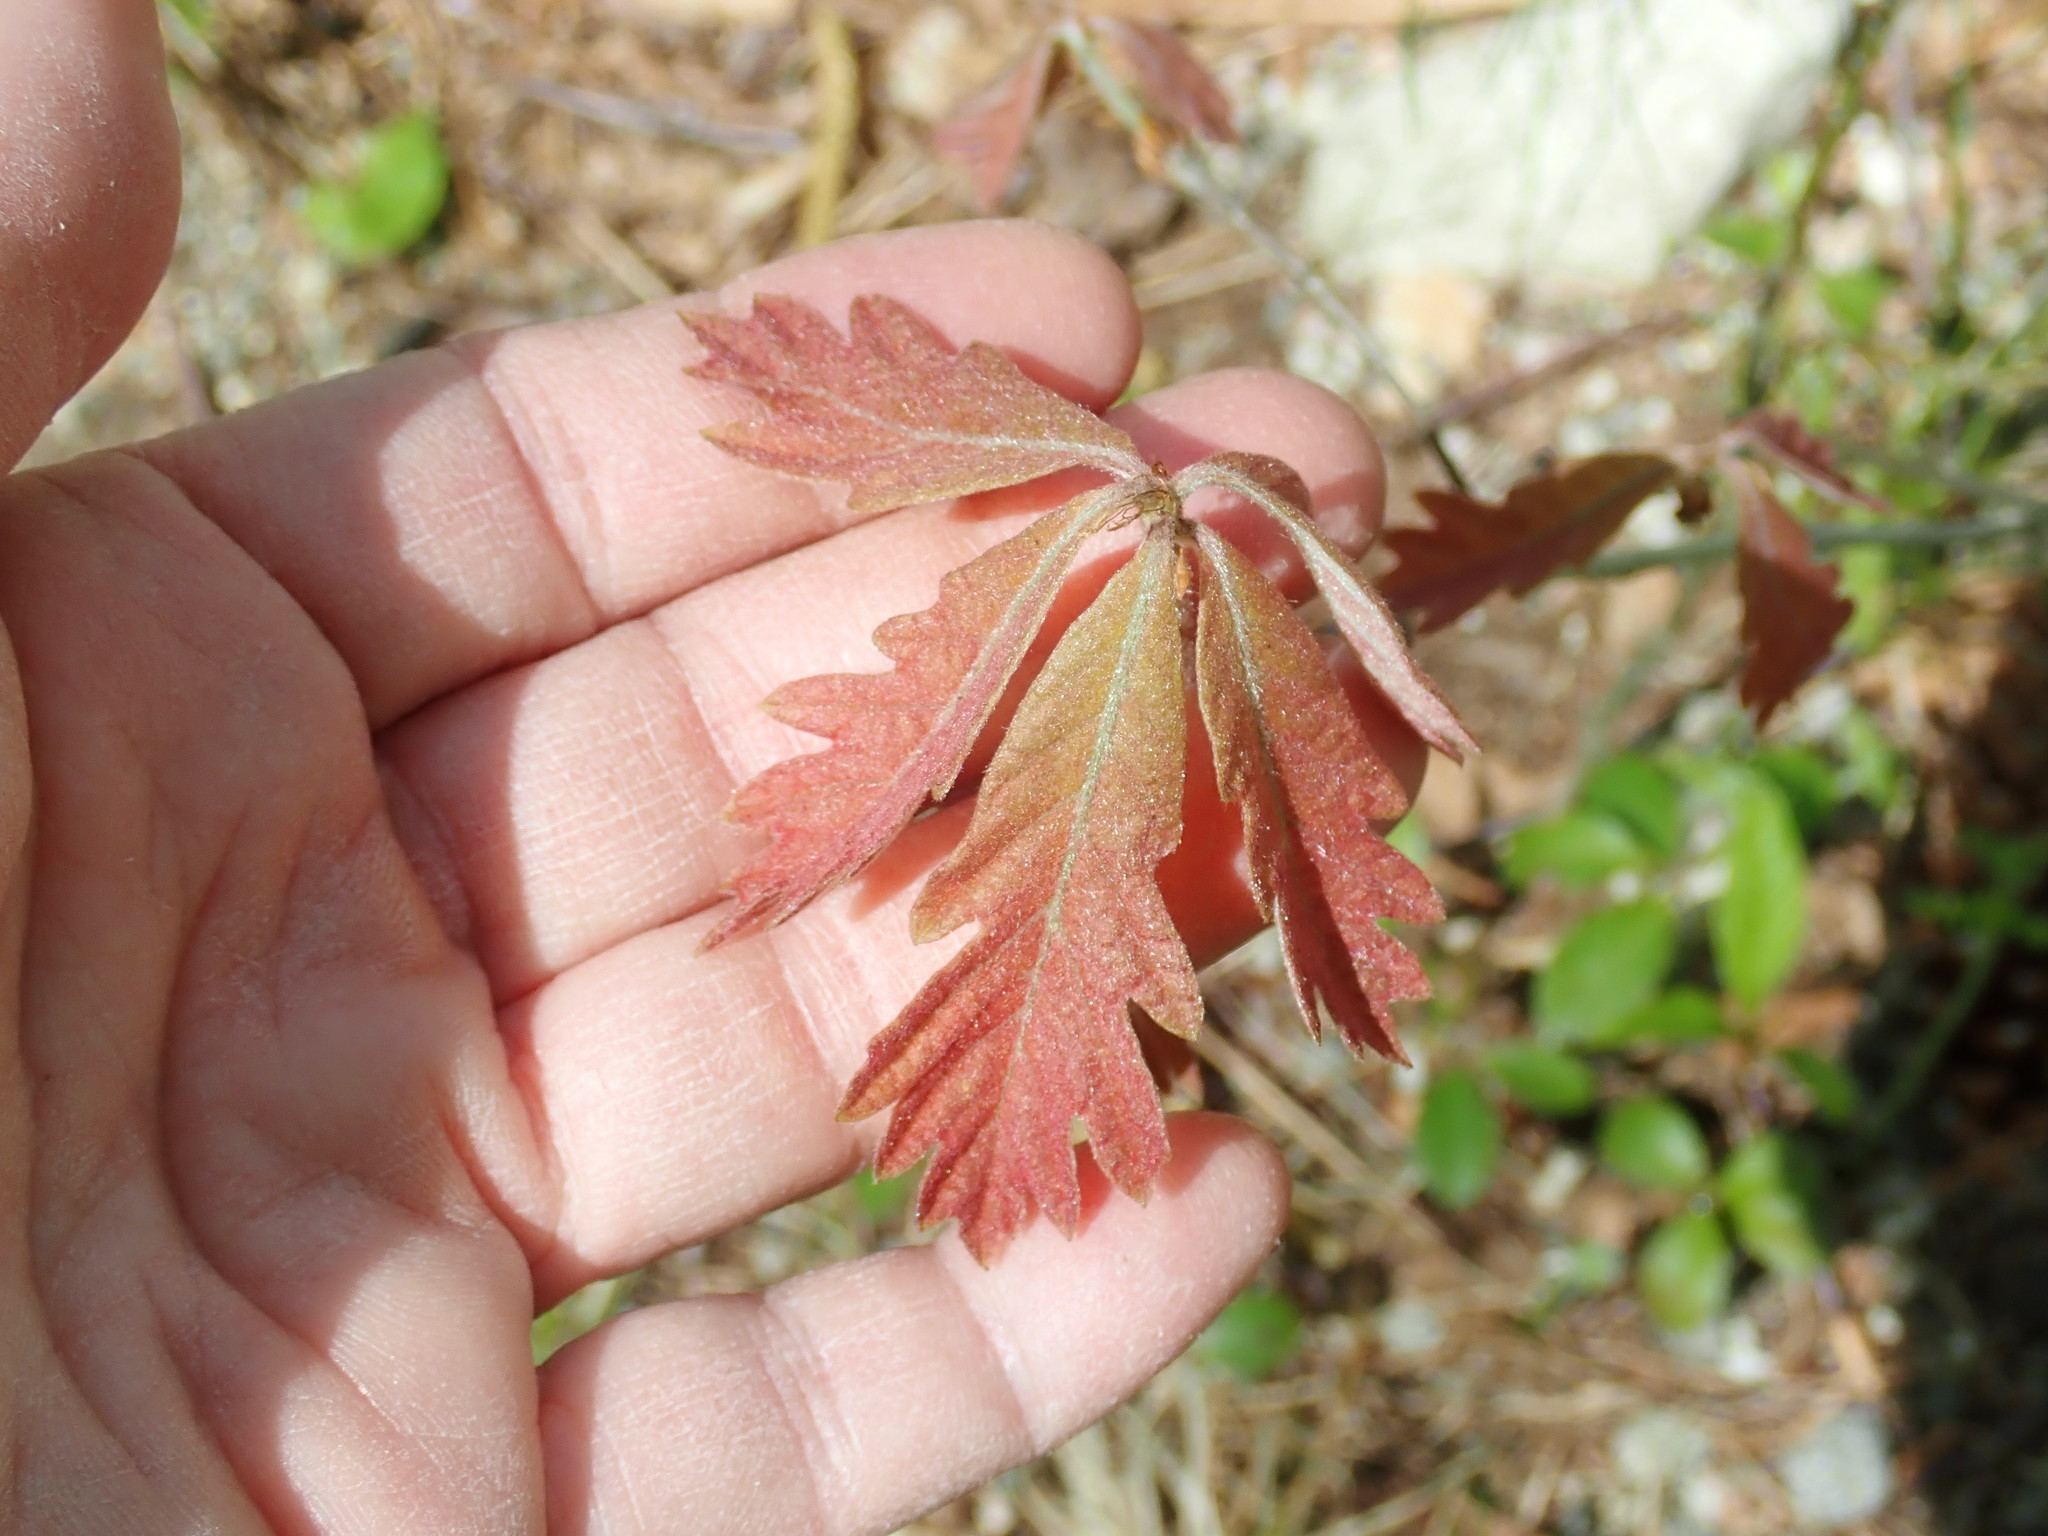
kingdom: Plantae
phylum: Tracheophyta
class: Magnoliopsida
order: Fagales
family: Fagaceae
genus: Quercus
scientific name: Quercus alba
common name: White oak
